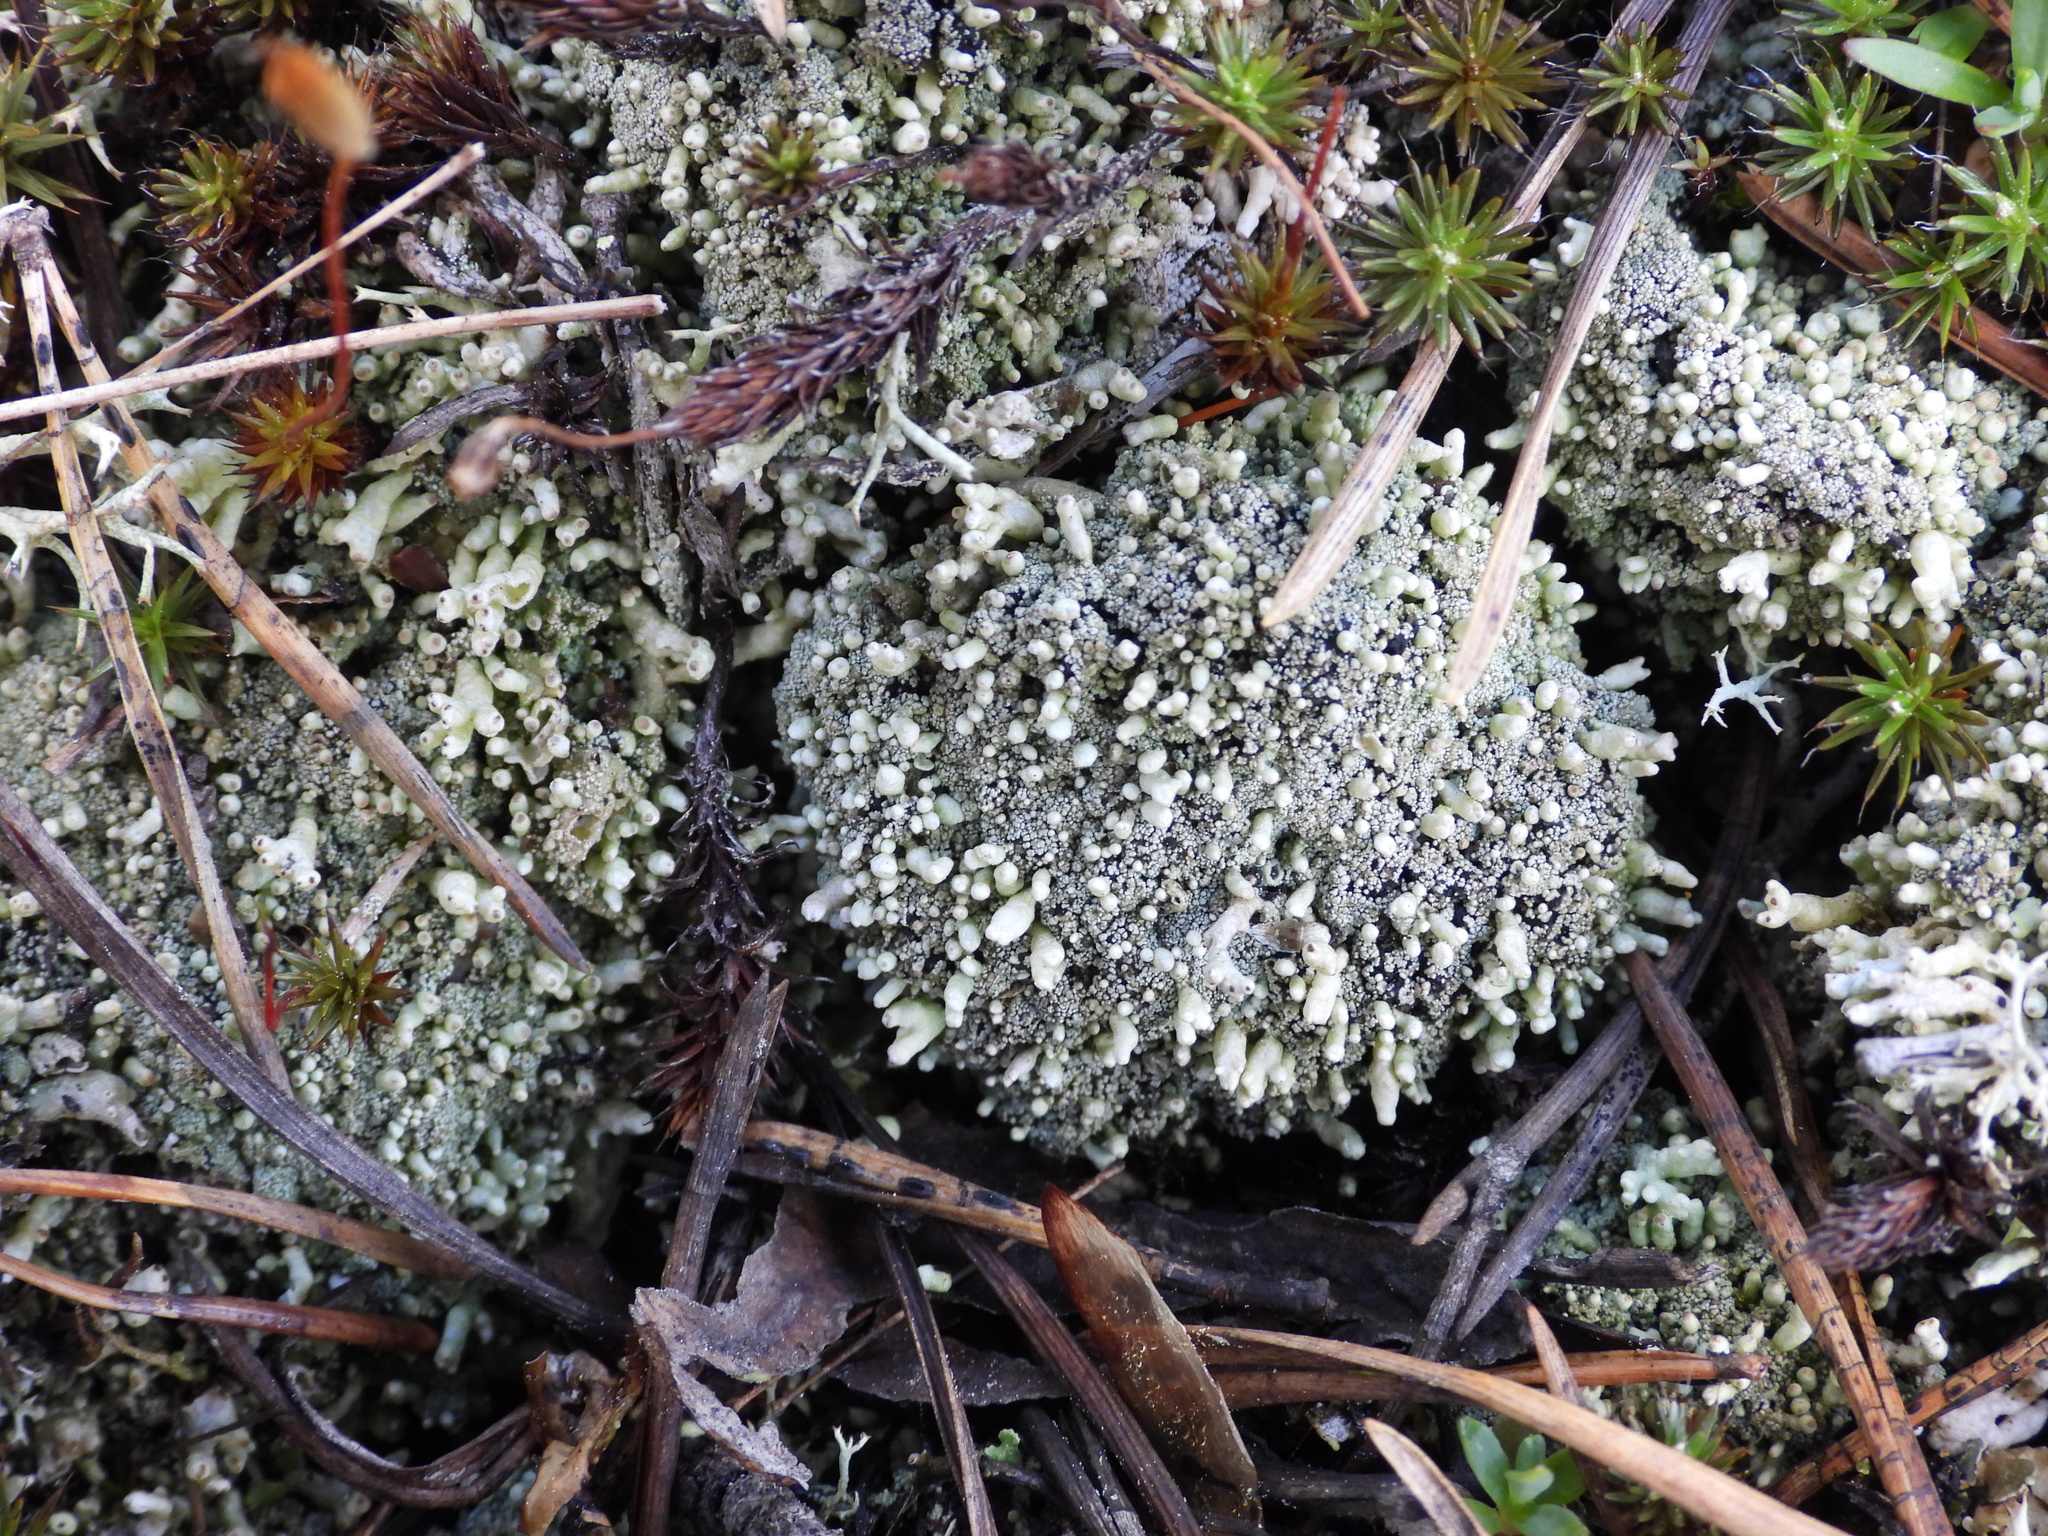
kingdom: Fungi
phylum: Ascomycota
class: Lecanoromycetes
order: Lecanorales
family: Cladoniaceae
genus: Pycnothelia
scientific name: Pycnothelia papillaria
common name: Nipple lichen
